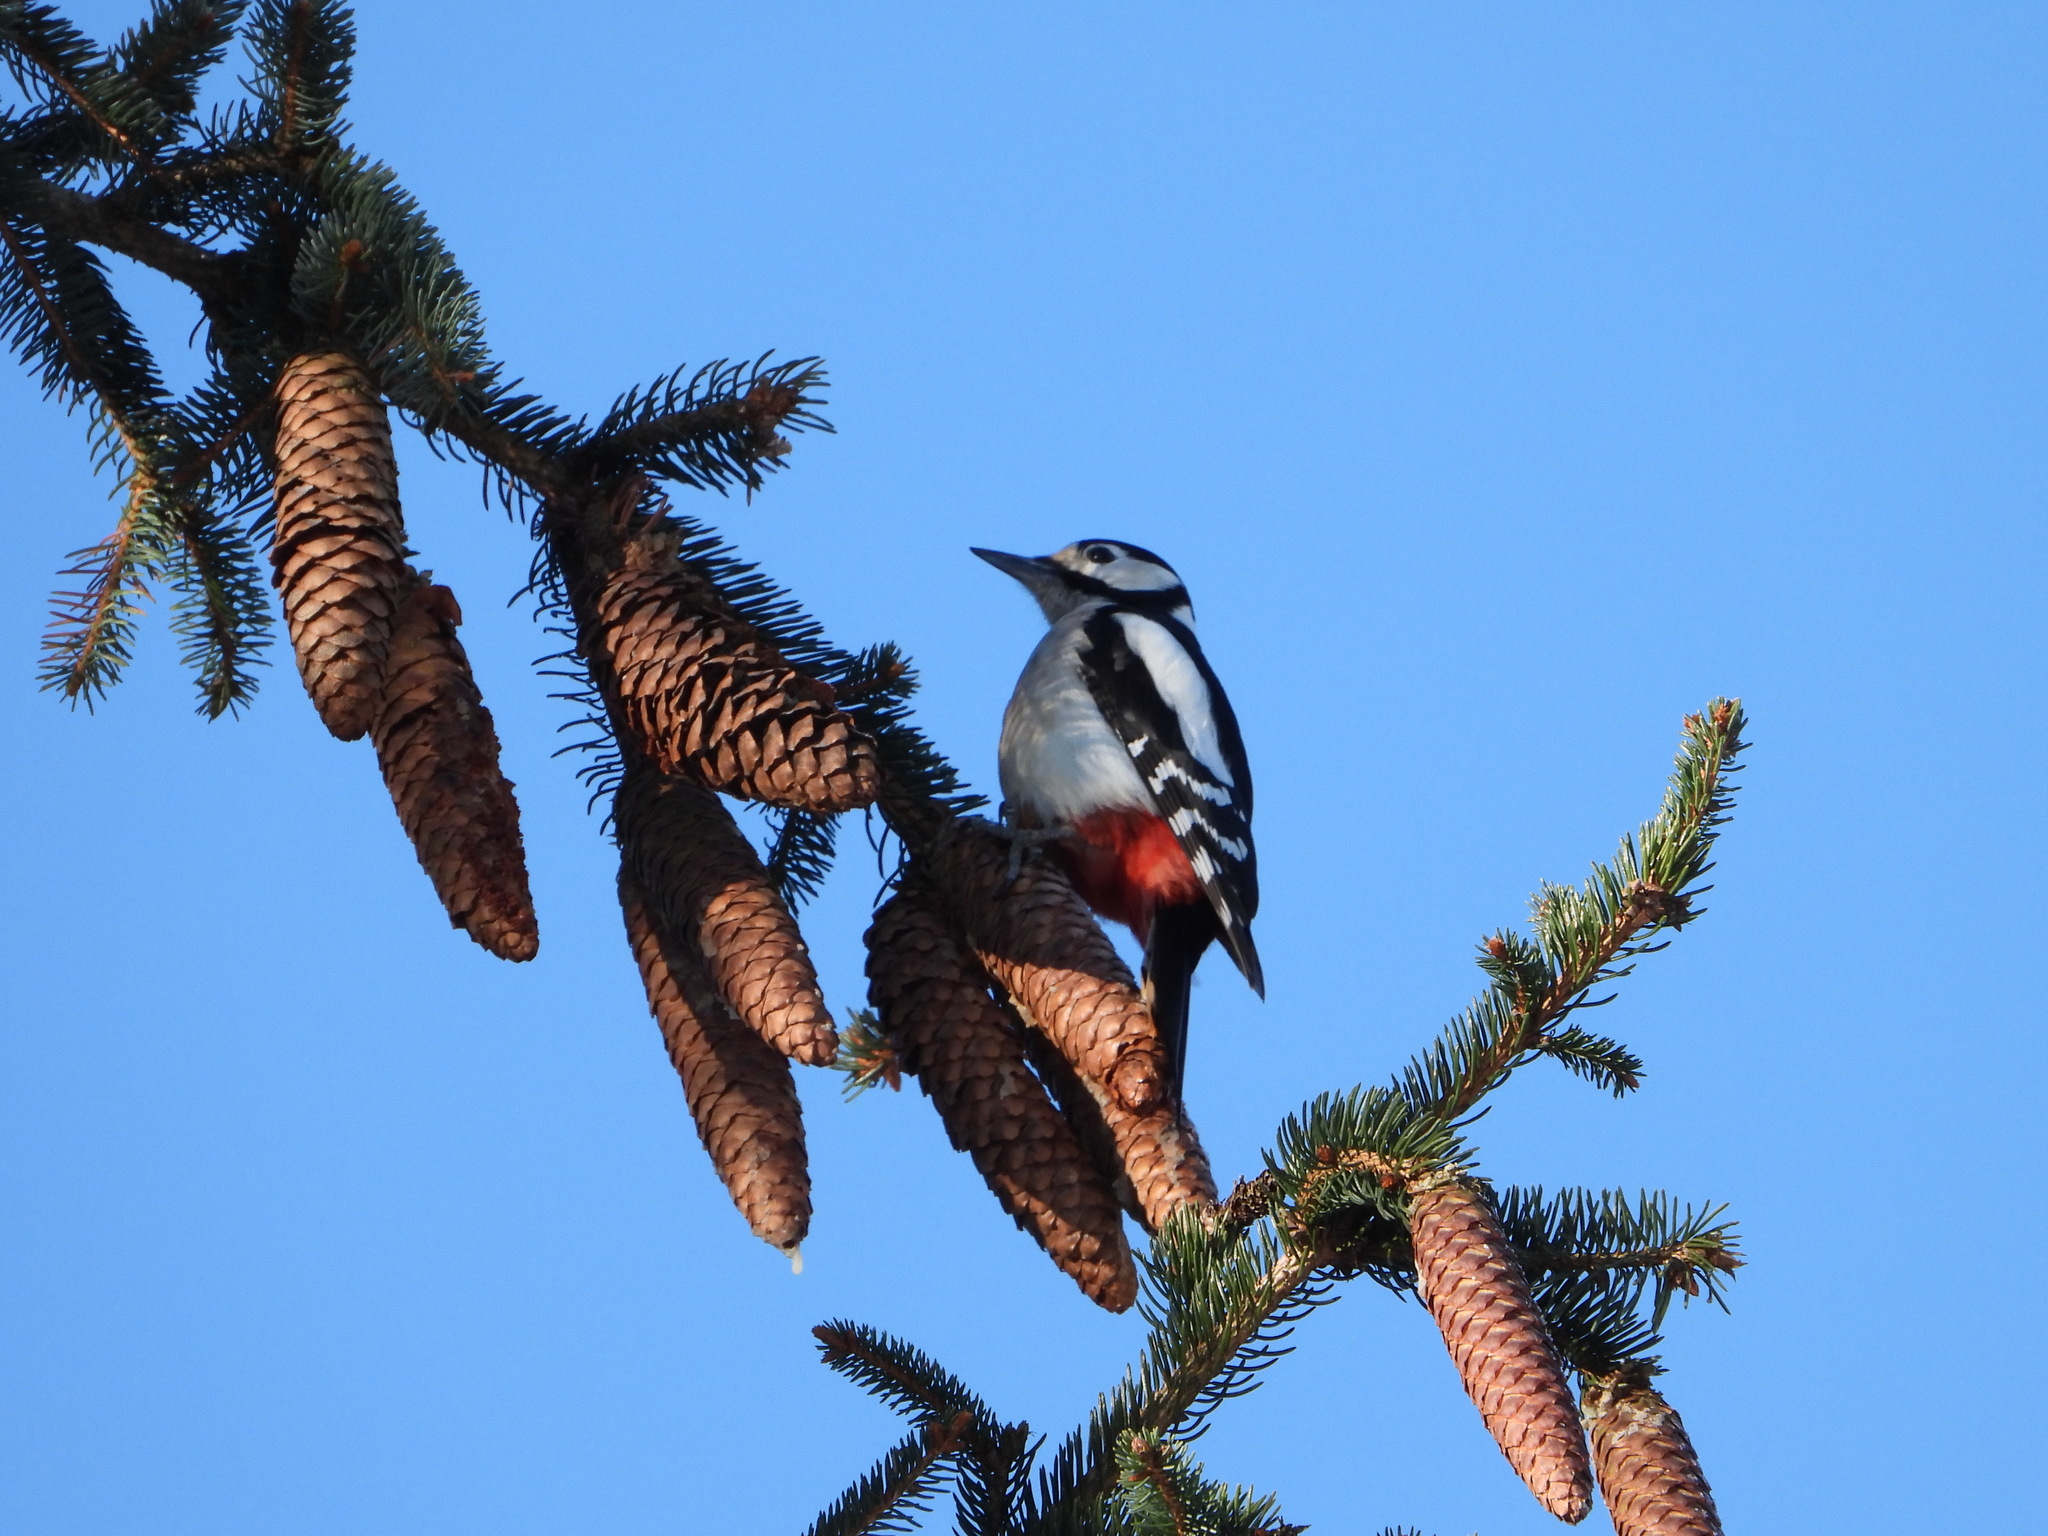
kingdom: Animalia
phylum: Chordata
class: Aves
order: Piciformes
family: Picidae
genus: Dendrocopos
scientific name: Dendrocopos major
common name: Great spotted woodpecker
